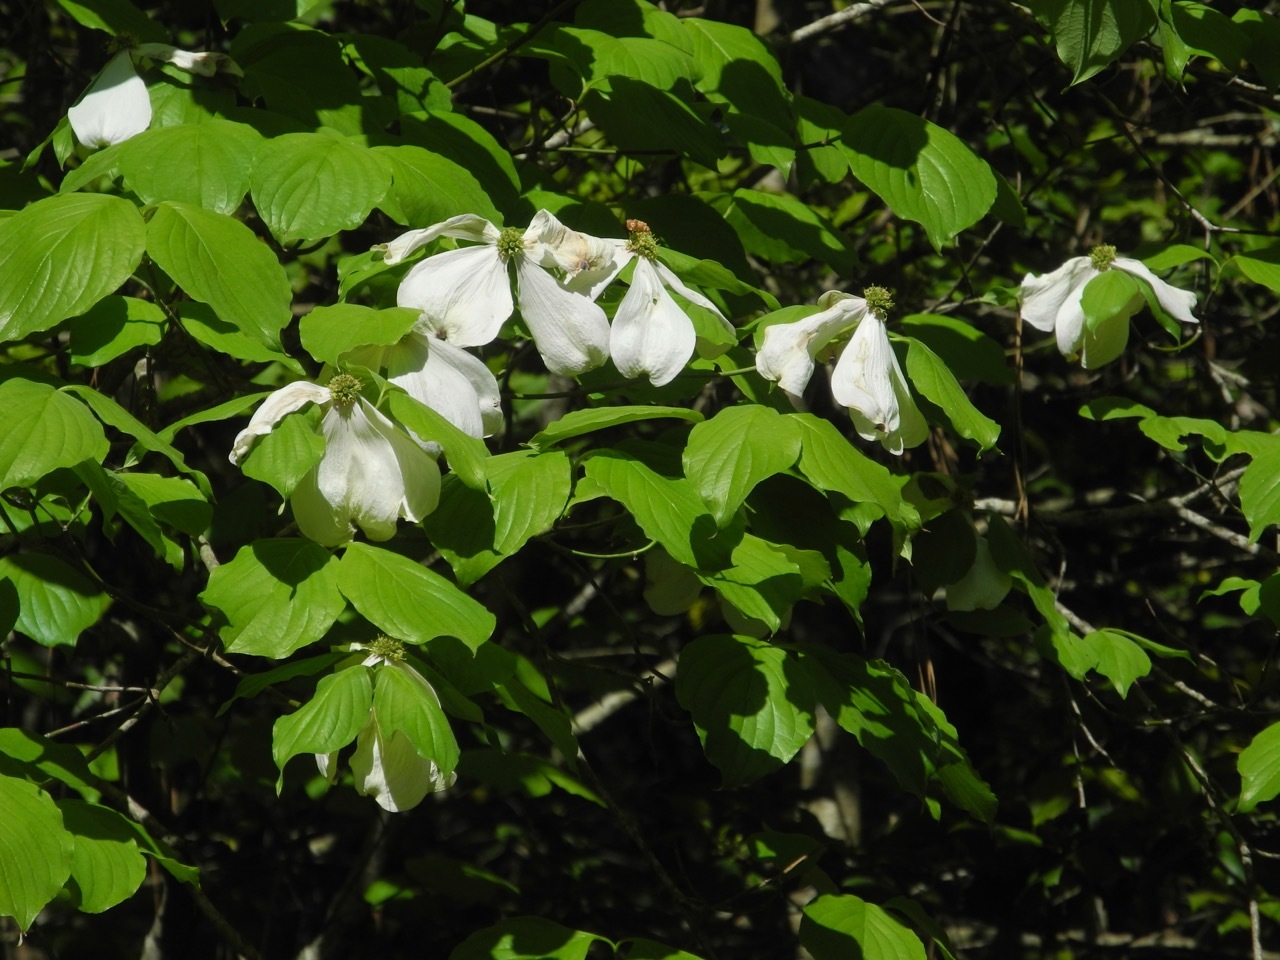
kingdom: Plantae
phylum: Tracheophyta
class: Magnoliopsida
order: Cornales
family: Cornaceae
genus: Cornus
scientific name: Cornus florida
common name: Flowering dogwood
